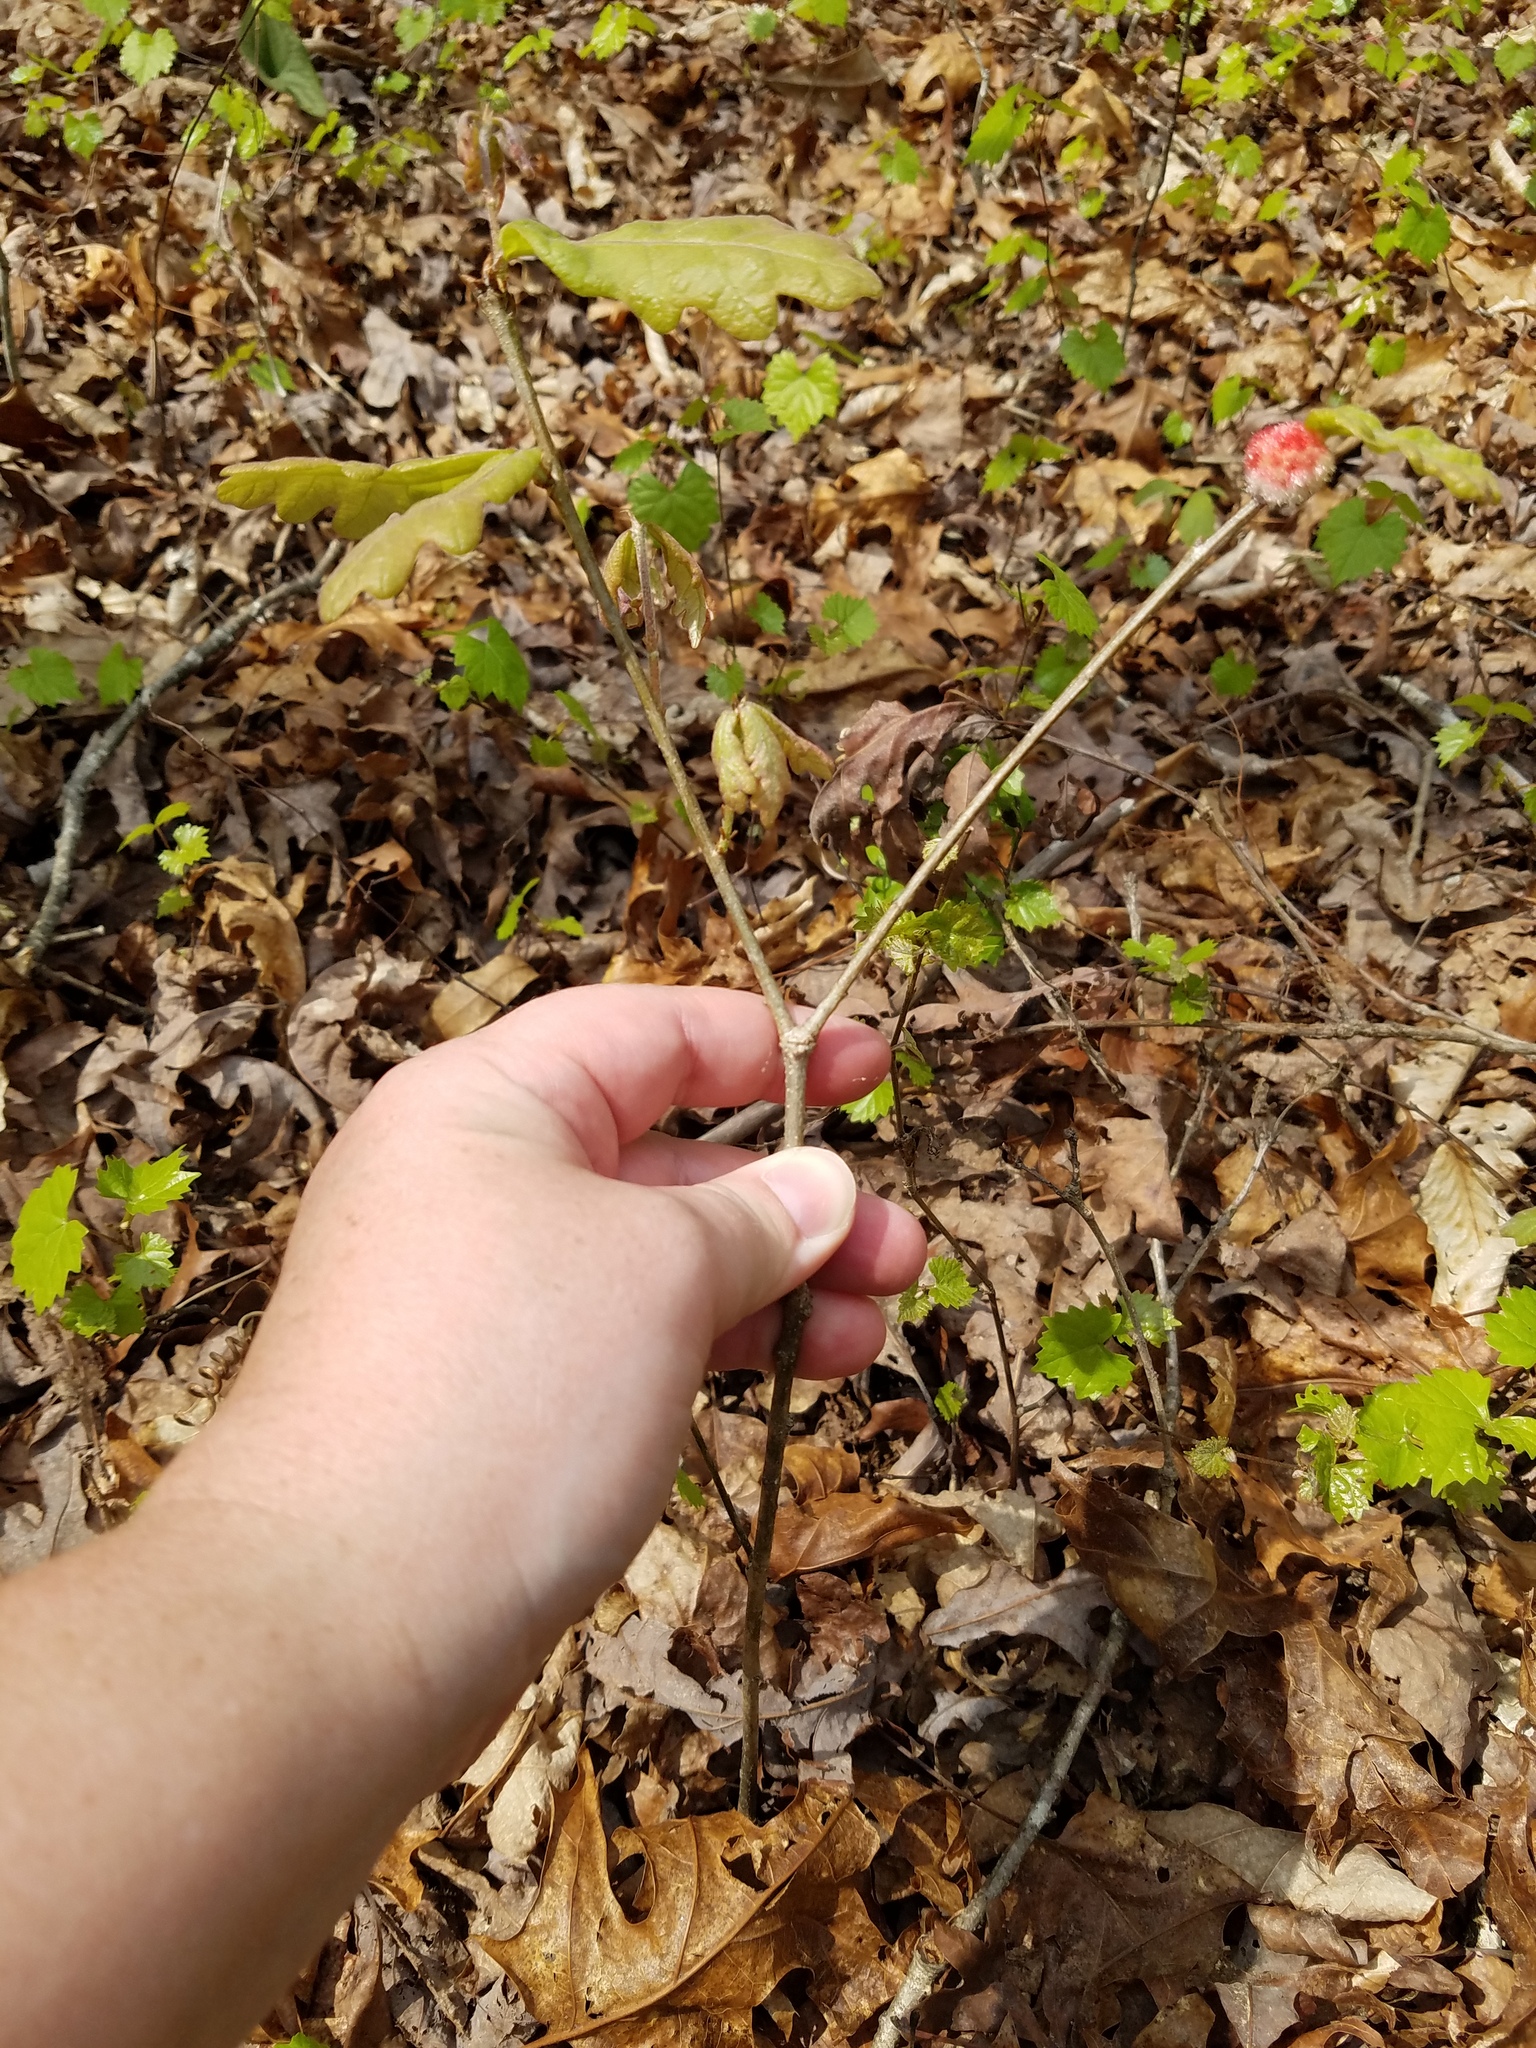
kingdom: Plantae
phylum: Tracheophyta
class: Magnoliopsida
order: Fagales
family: Fagaceae
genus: Quercus
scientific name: Quercus alba
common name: White oak
